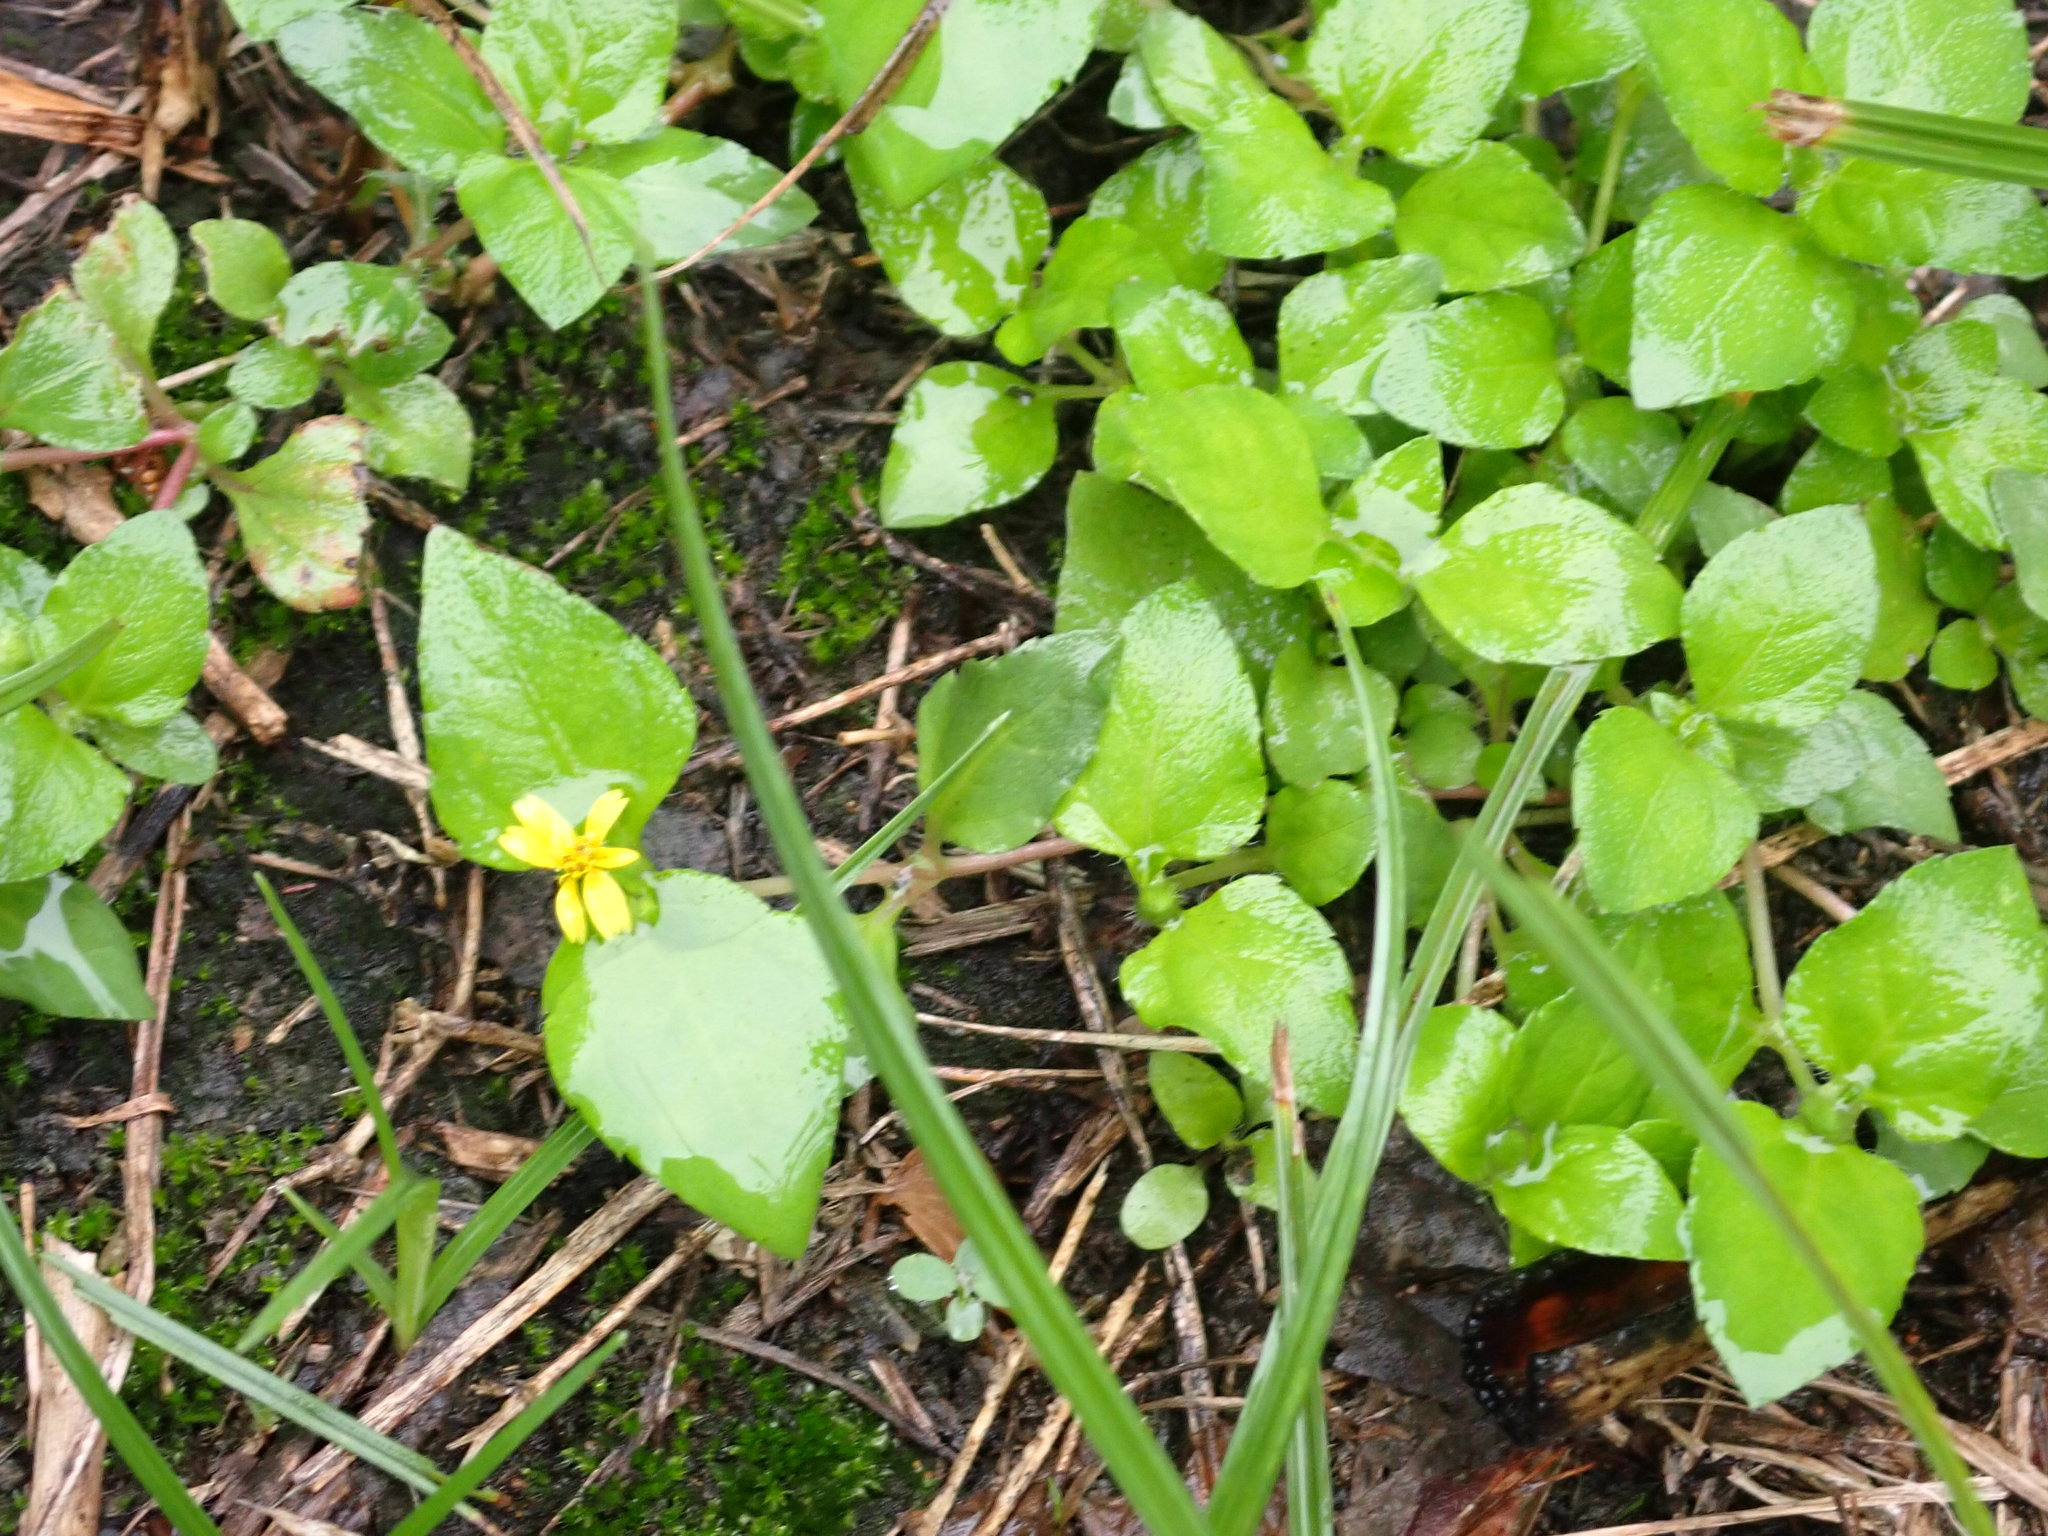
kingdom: Plantae
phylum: Tracheophyta
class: Magnoliopsida
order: Asterales
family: Asteraceae
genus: Calyptocarpus
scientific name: Calyptocarpus vialis
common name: Straggler daisy
